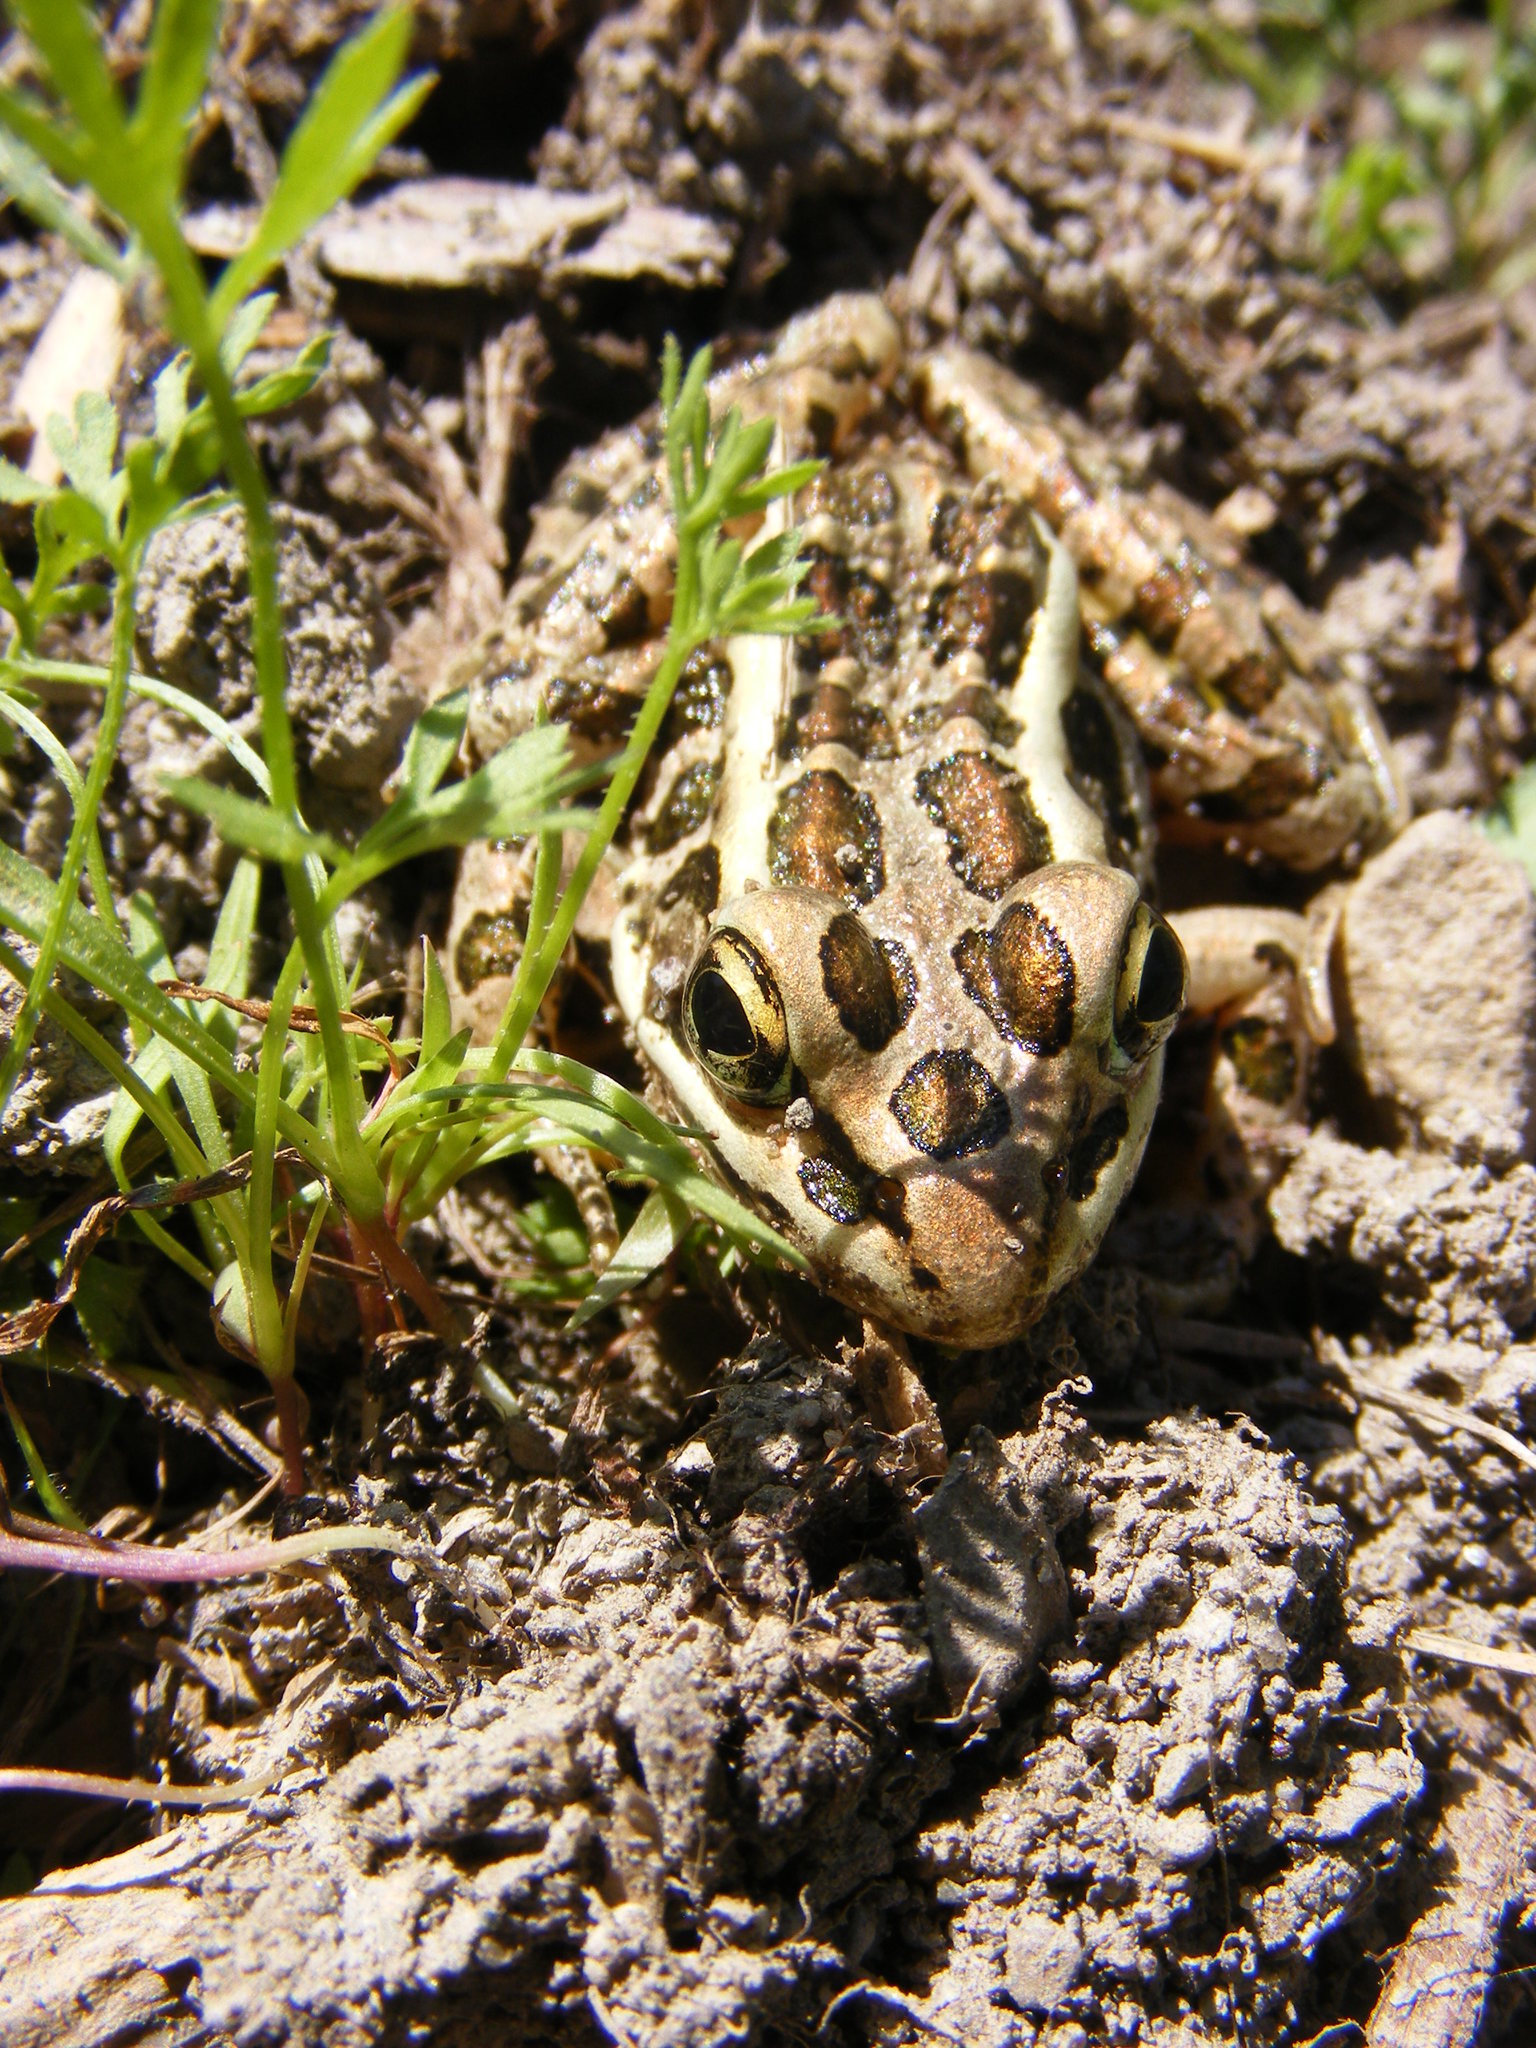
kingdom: Animalia
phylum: Chordata
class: Amphibia
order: Anura
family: Ranidae
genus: Lithobates
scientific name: Lithobates palustris
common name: Pickerel frog
